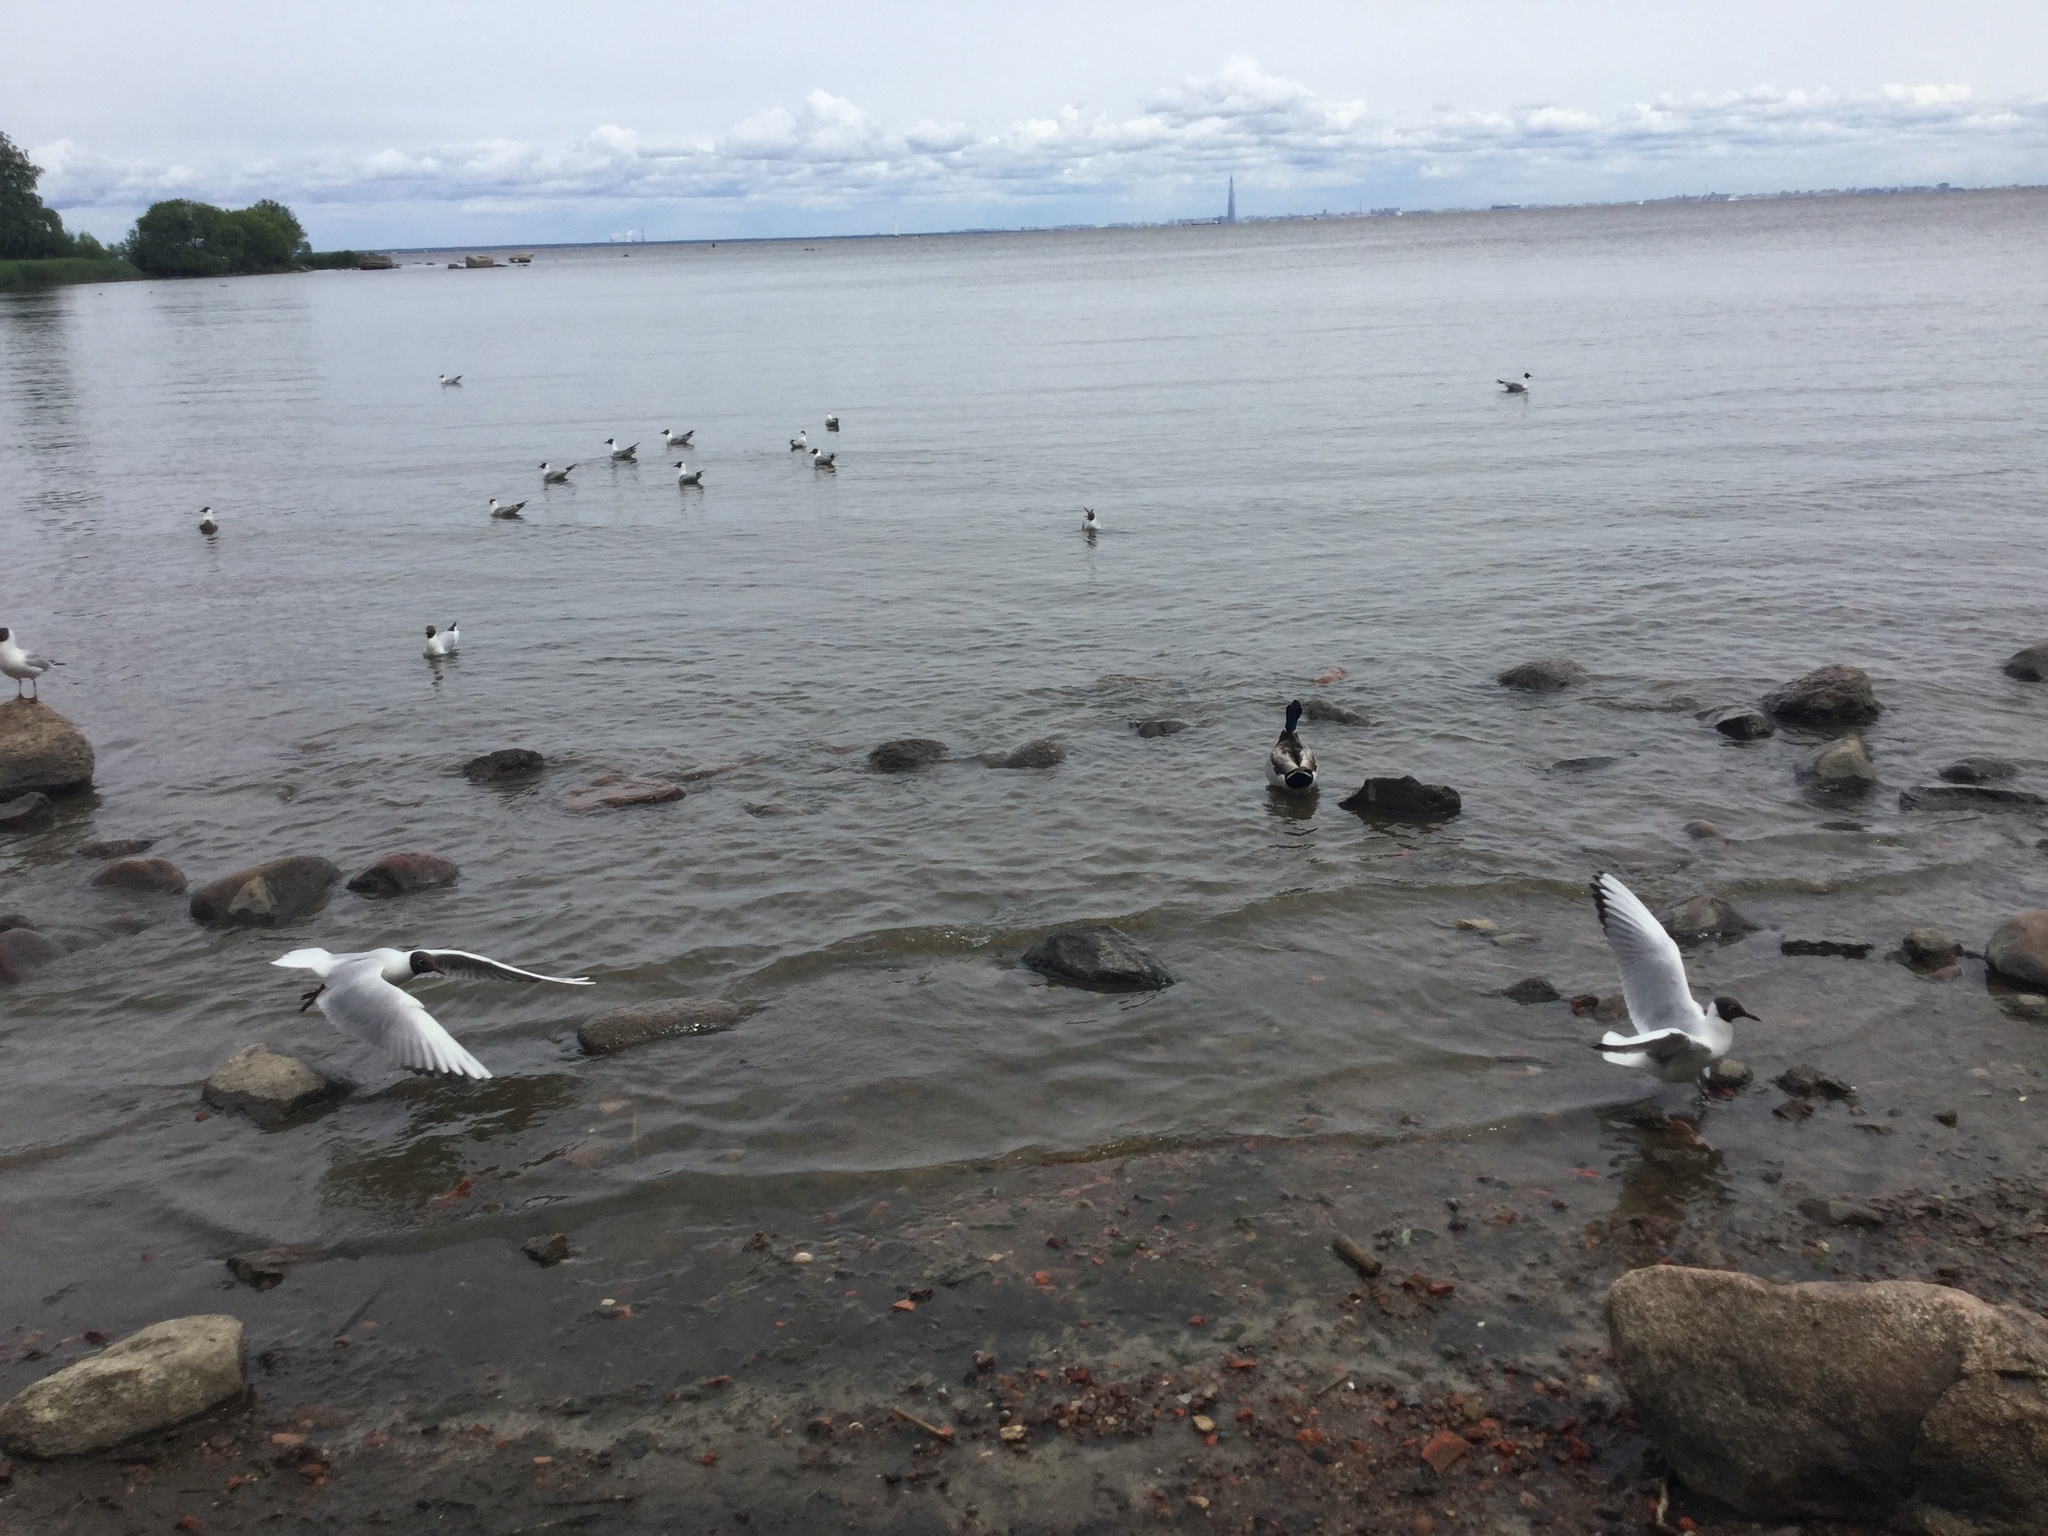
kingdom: Animalia
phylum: Chordata
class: Aves
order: Anseriformes
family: Anatidae
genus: Anas
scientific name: Anas platyrhynchos
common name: Mallard
